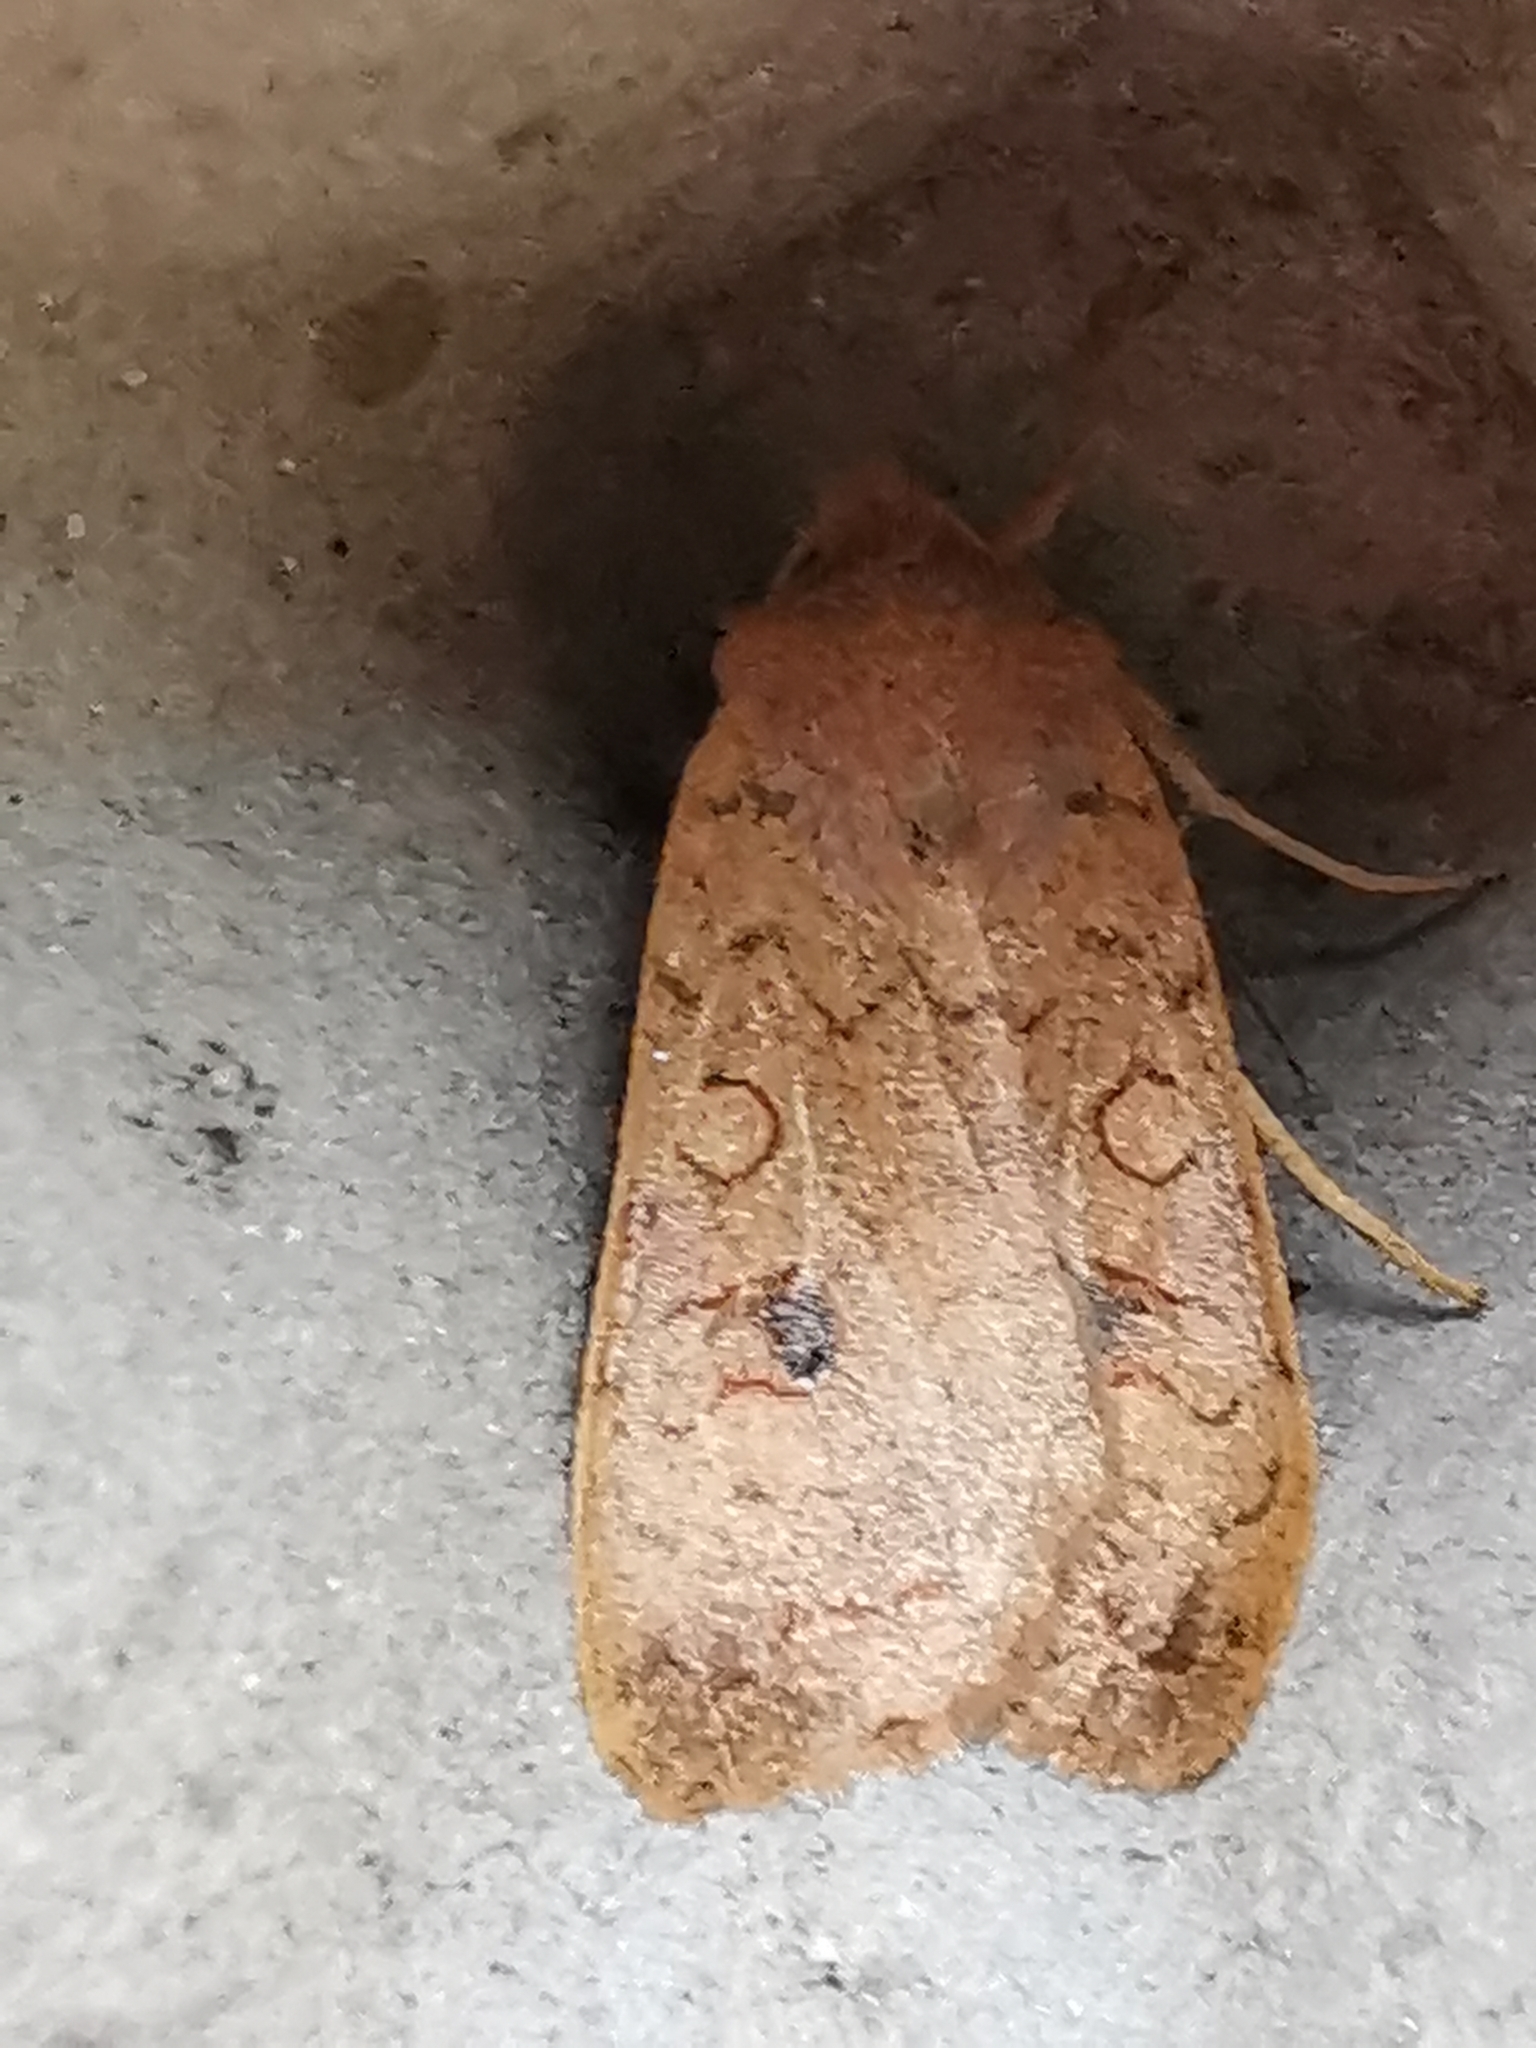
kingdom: Animalia
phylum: Arthropoda
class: Insecta
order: Lepidoptera
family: Noctuidae
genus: Sunira
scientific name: Sunira circellaris
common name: Brick
